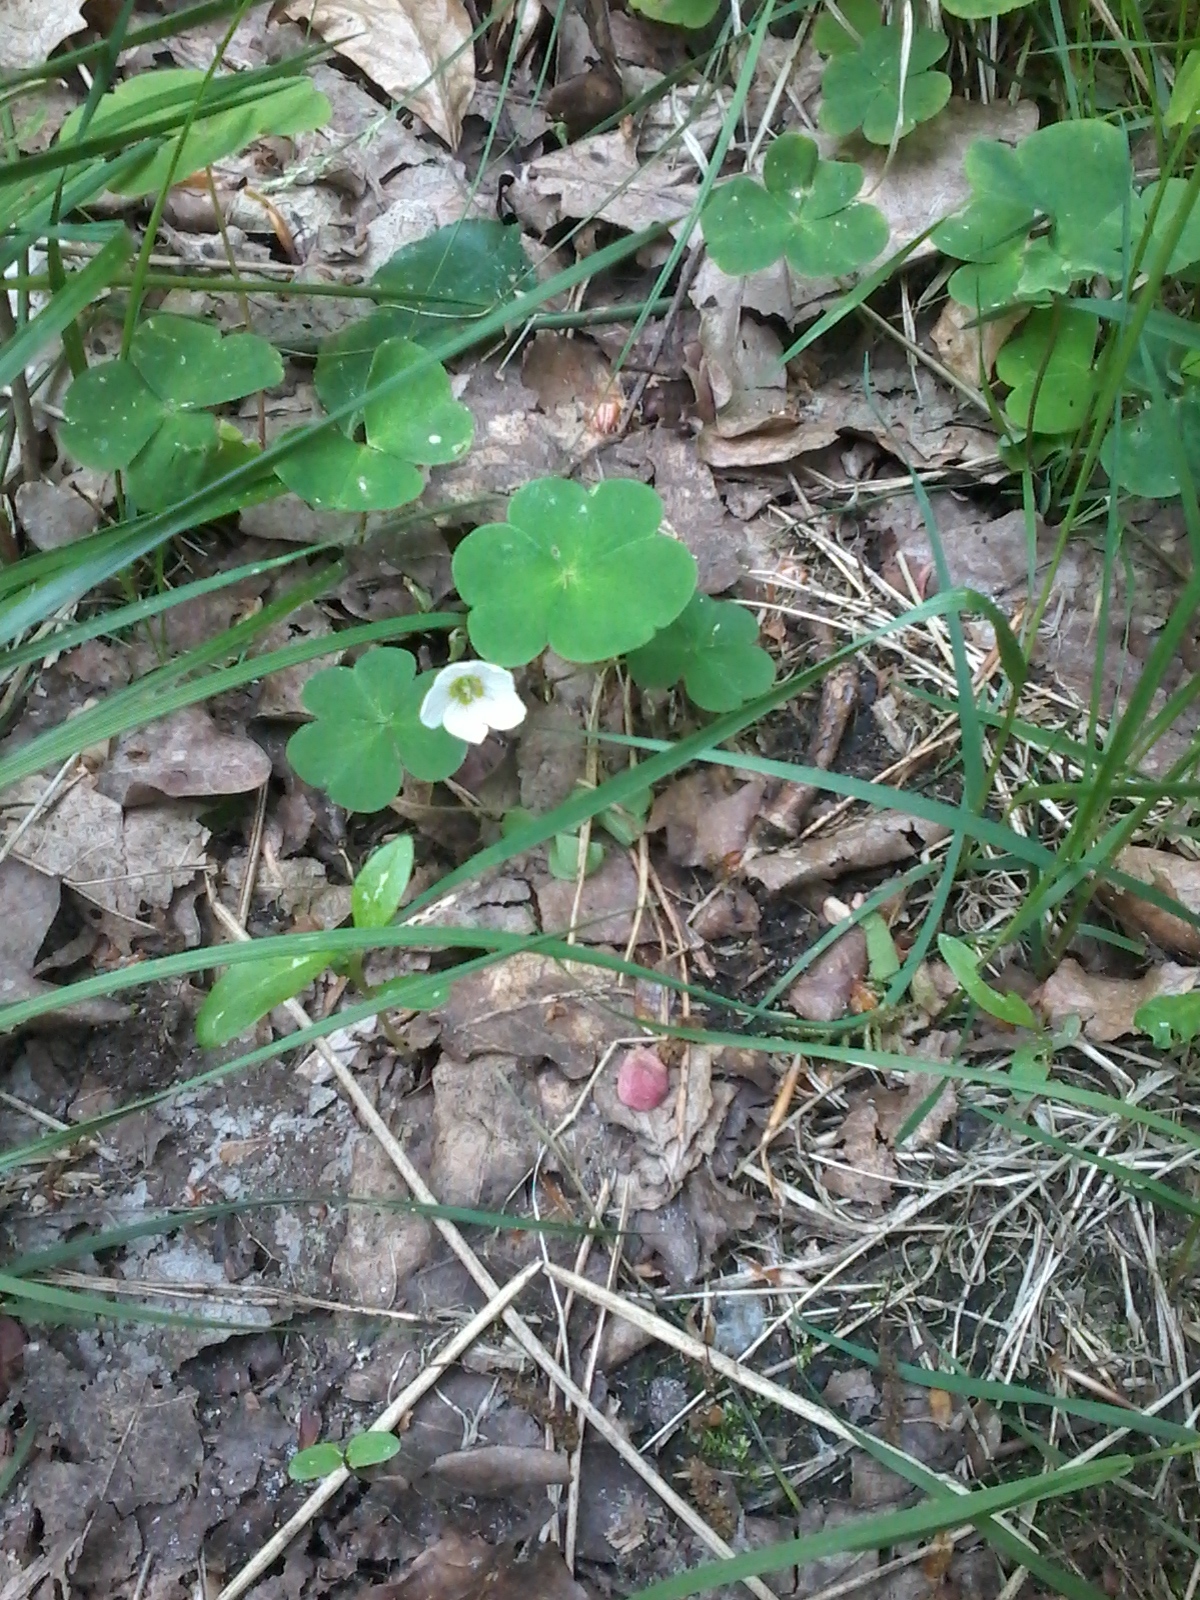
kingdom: Plantae
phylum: Tracheophyta
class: Magnoliopsida
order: Oxalidales
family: Oxalidaceae
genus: Oxalis
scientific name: Oxalis acetosella
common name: Wood-sorrel
